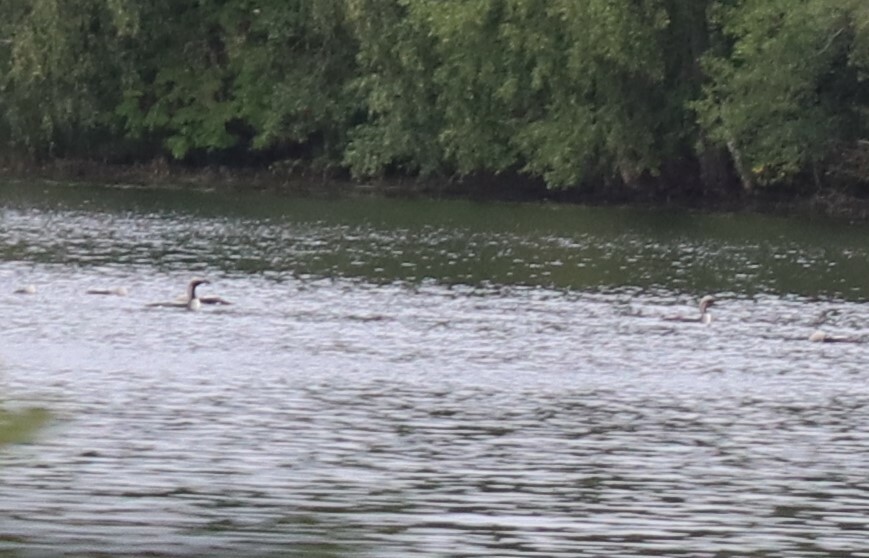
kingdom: Animalia
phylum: Chordata
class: Aves
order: Gaviiformes
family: Gaviidae
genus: Gavia
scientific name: Gavia arctica
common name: Black-throated loon
